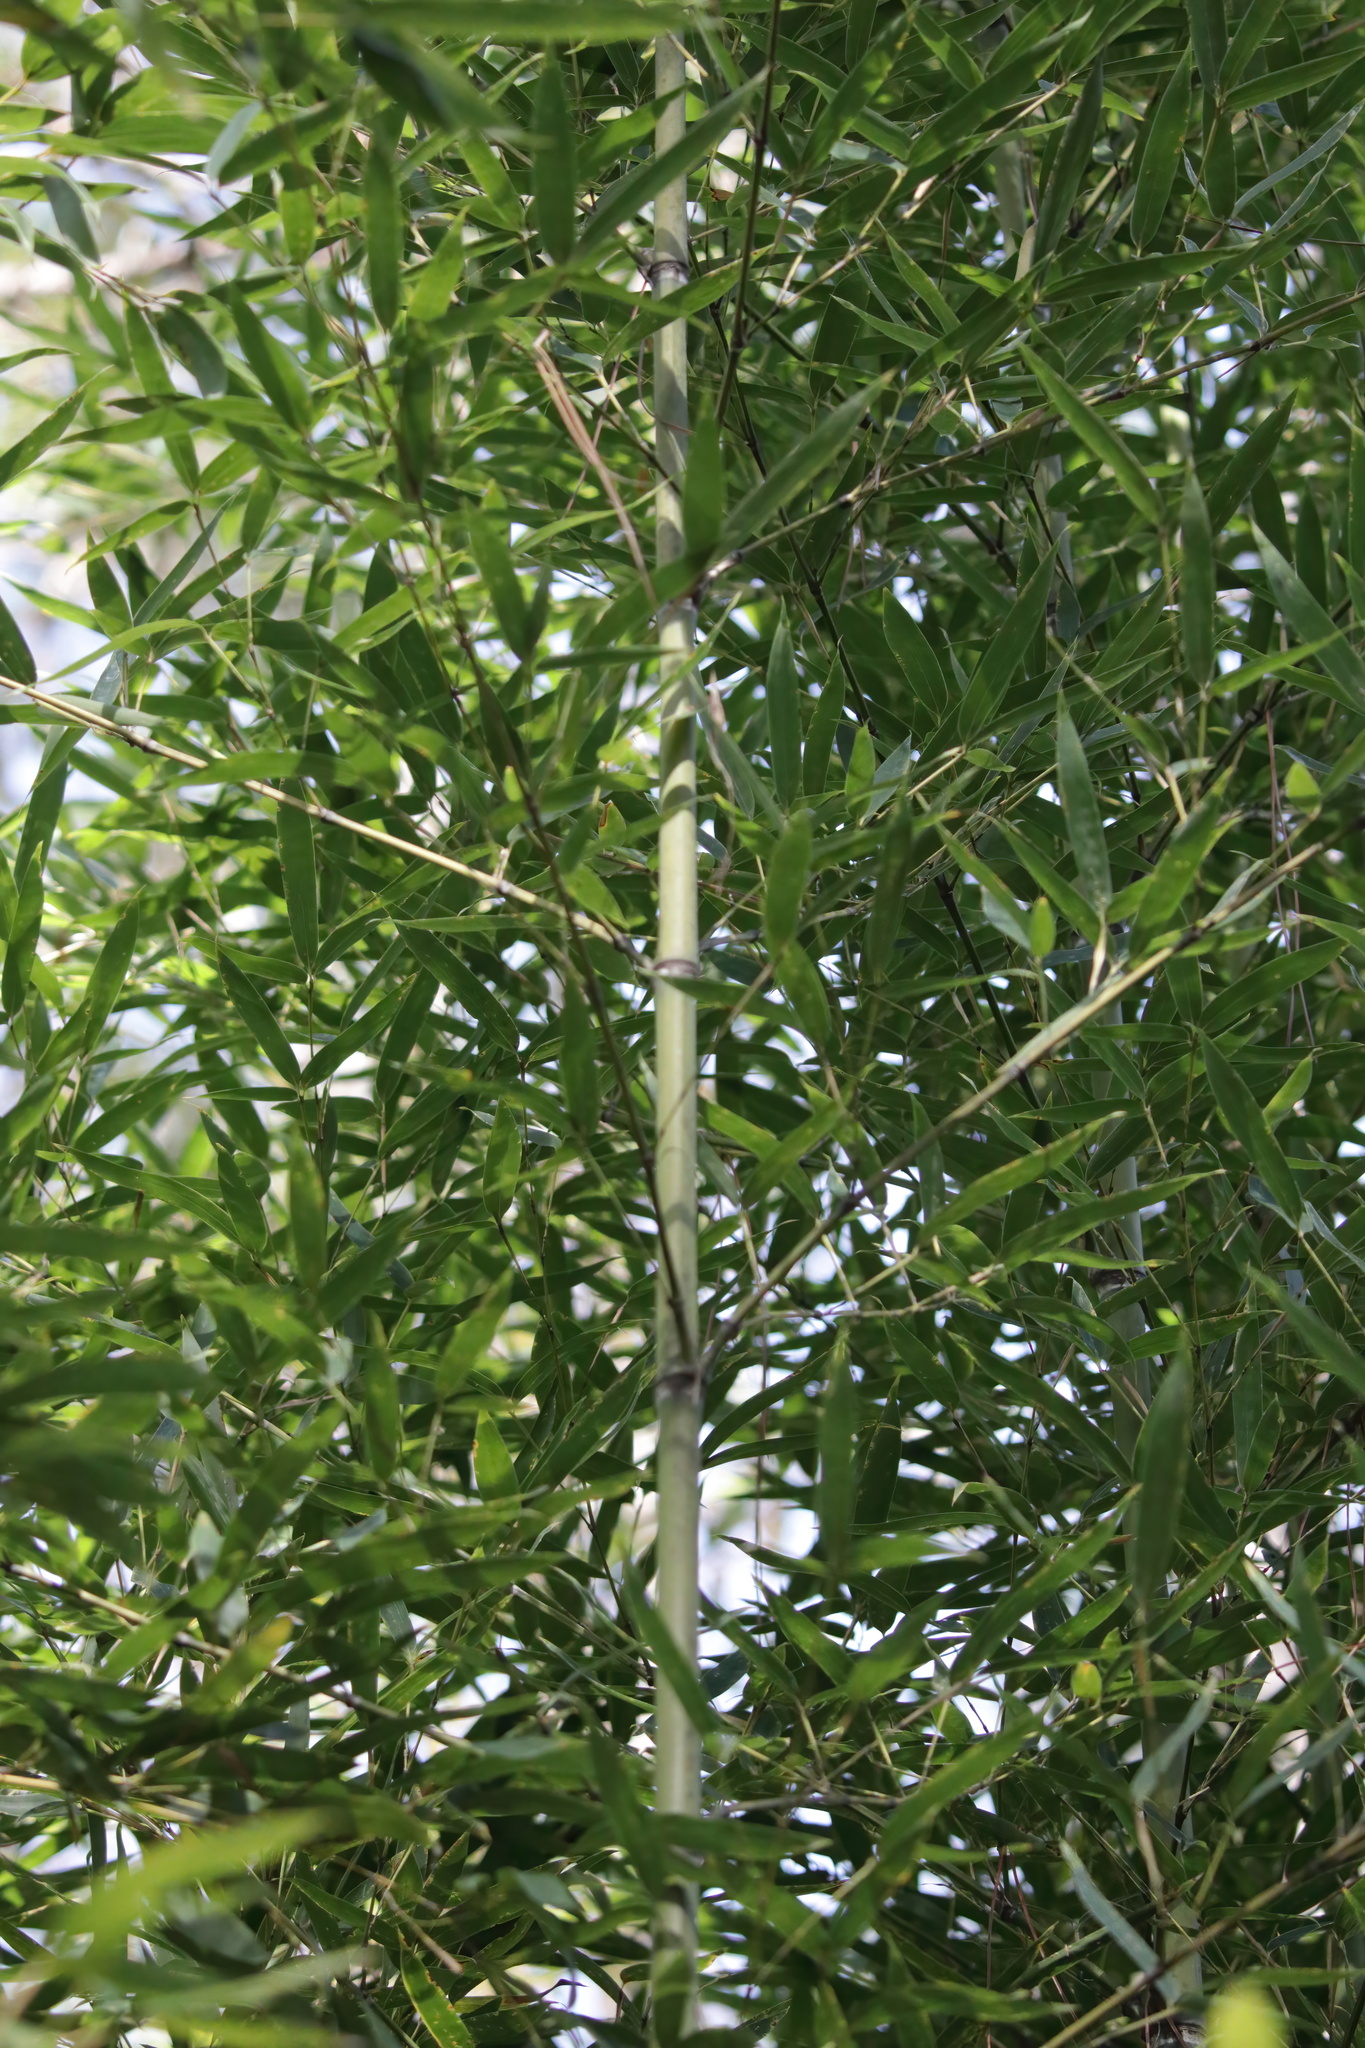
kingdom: Plantae
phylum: Tracheophyta
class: Liliopsida
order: Poales
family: Poaceae
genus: Phyllostachys
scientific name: Phyllostachys aurea
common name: Golden bamboo
